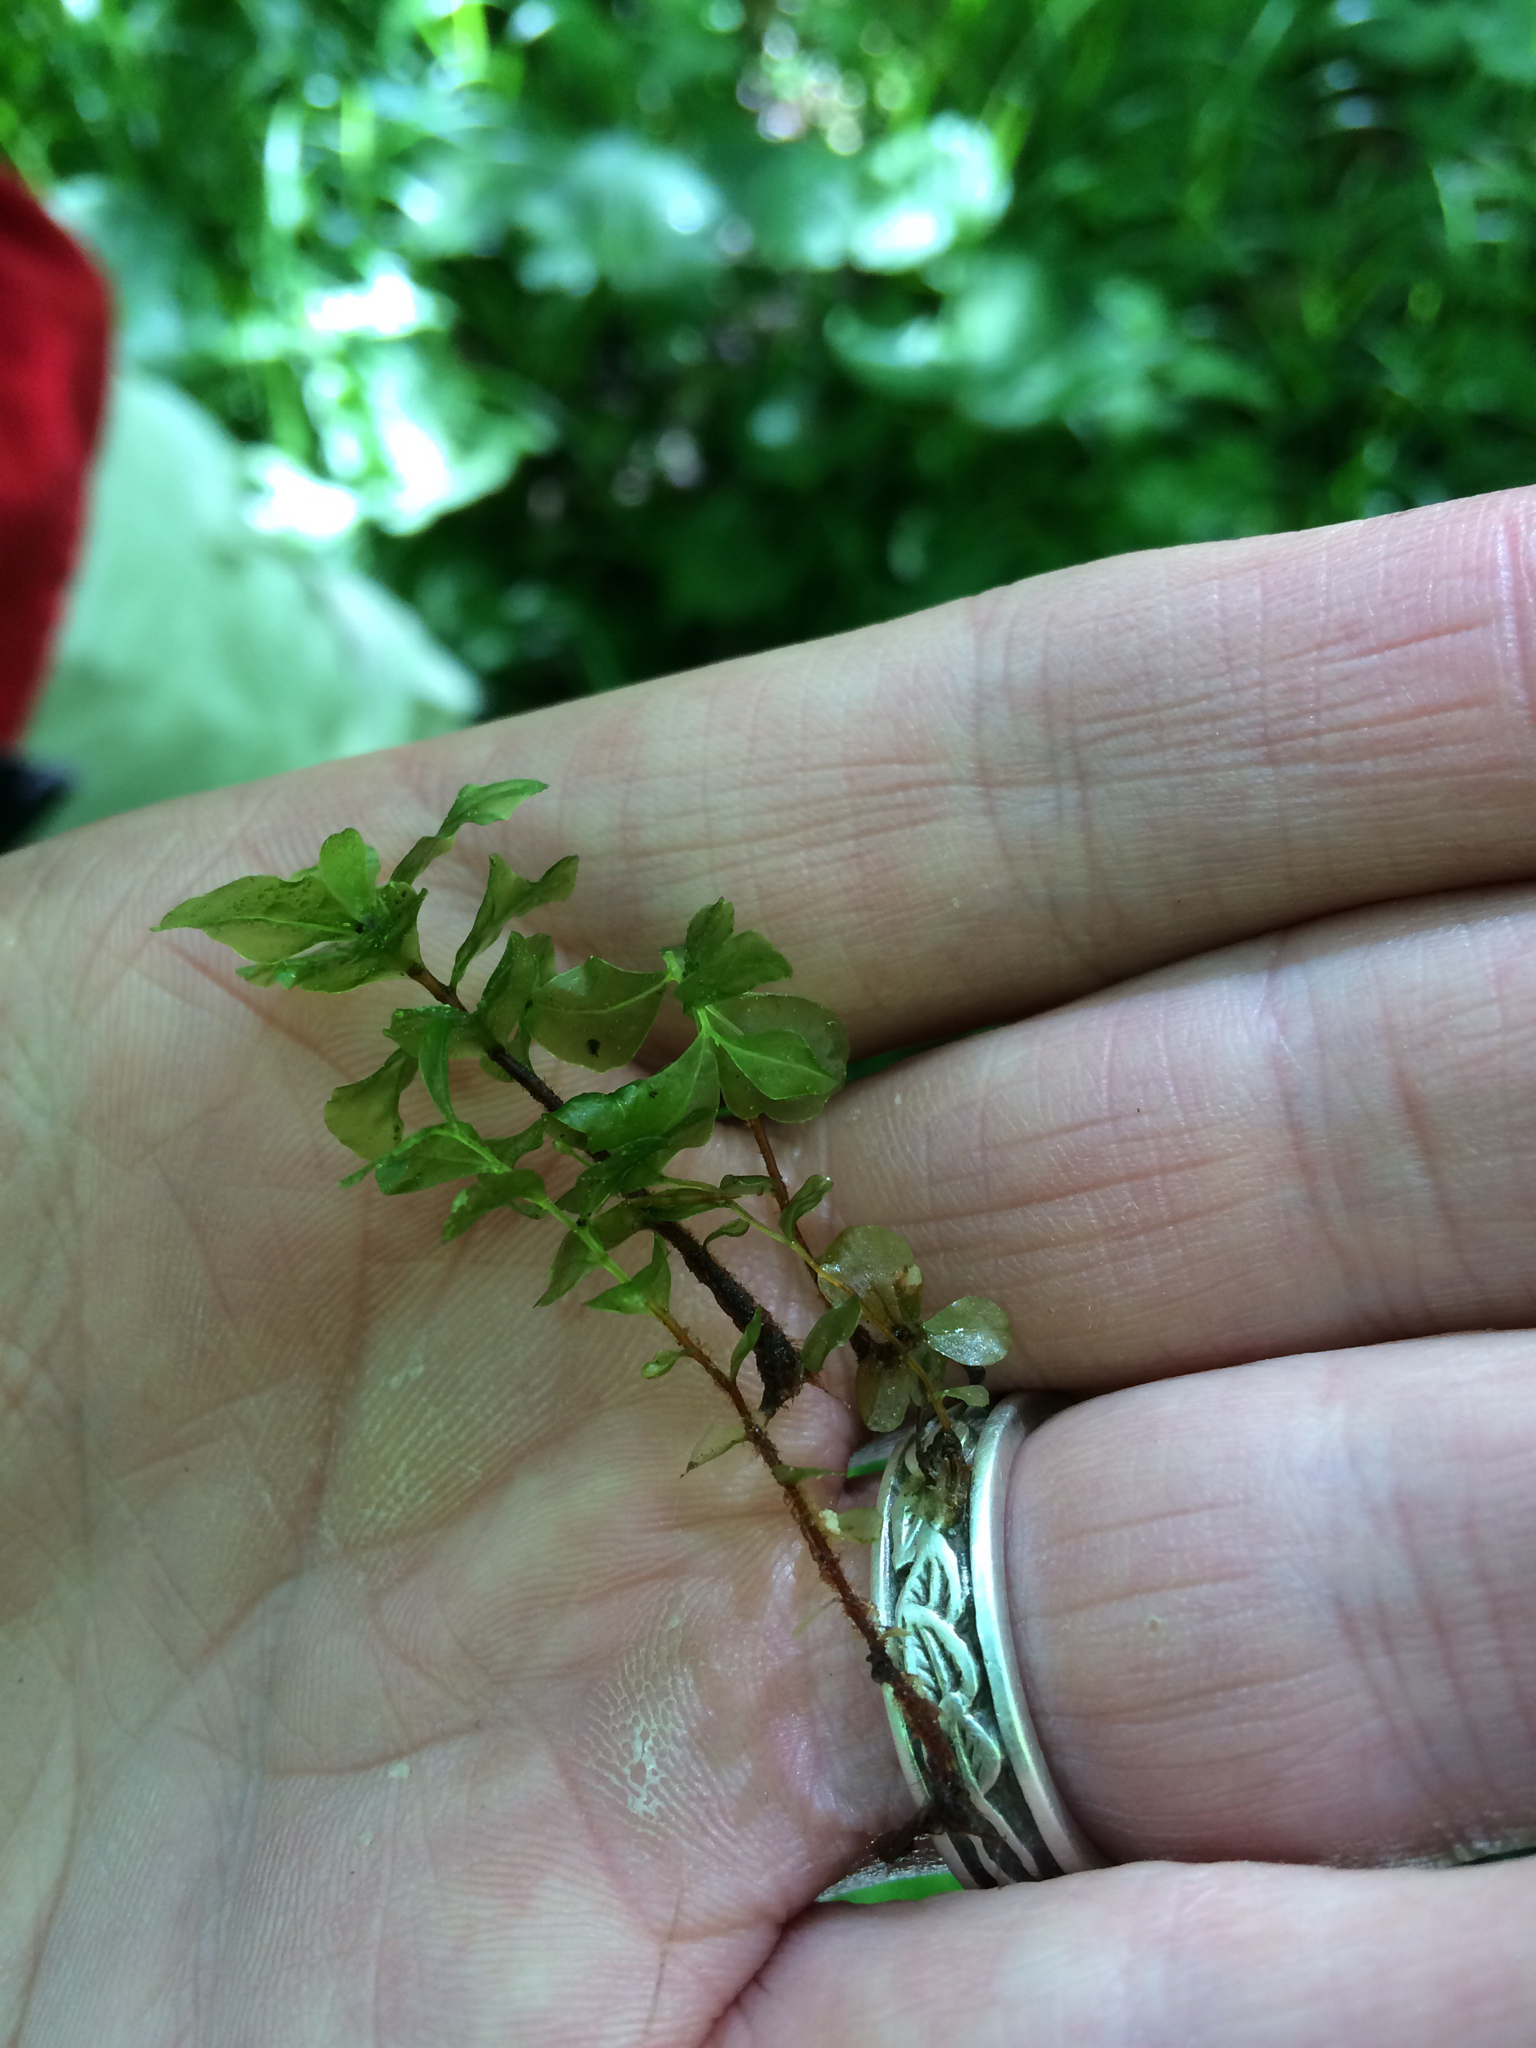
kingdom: Plantae
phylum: Bryophyta
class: Bryopsida
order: Bryales
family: Mniaceae
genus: Rhizomnium
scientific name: Rhizomnium punctatum
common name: Dotted leafy moss
